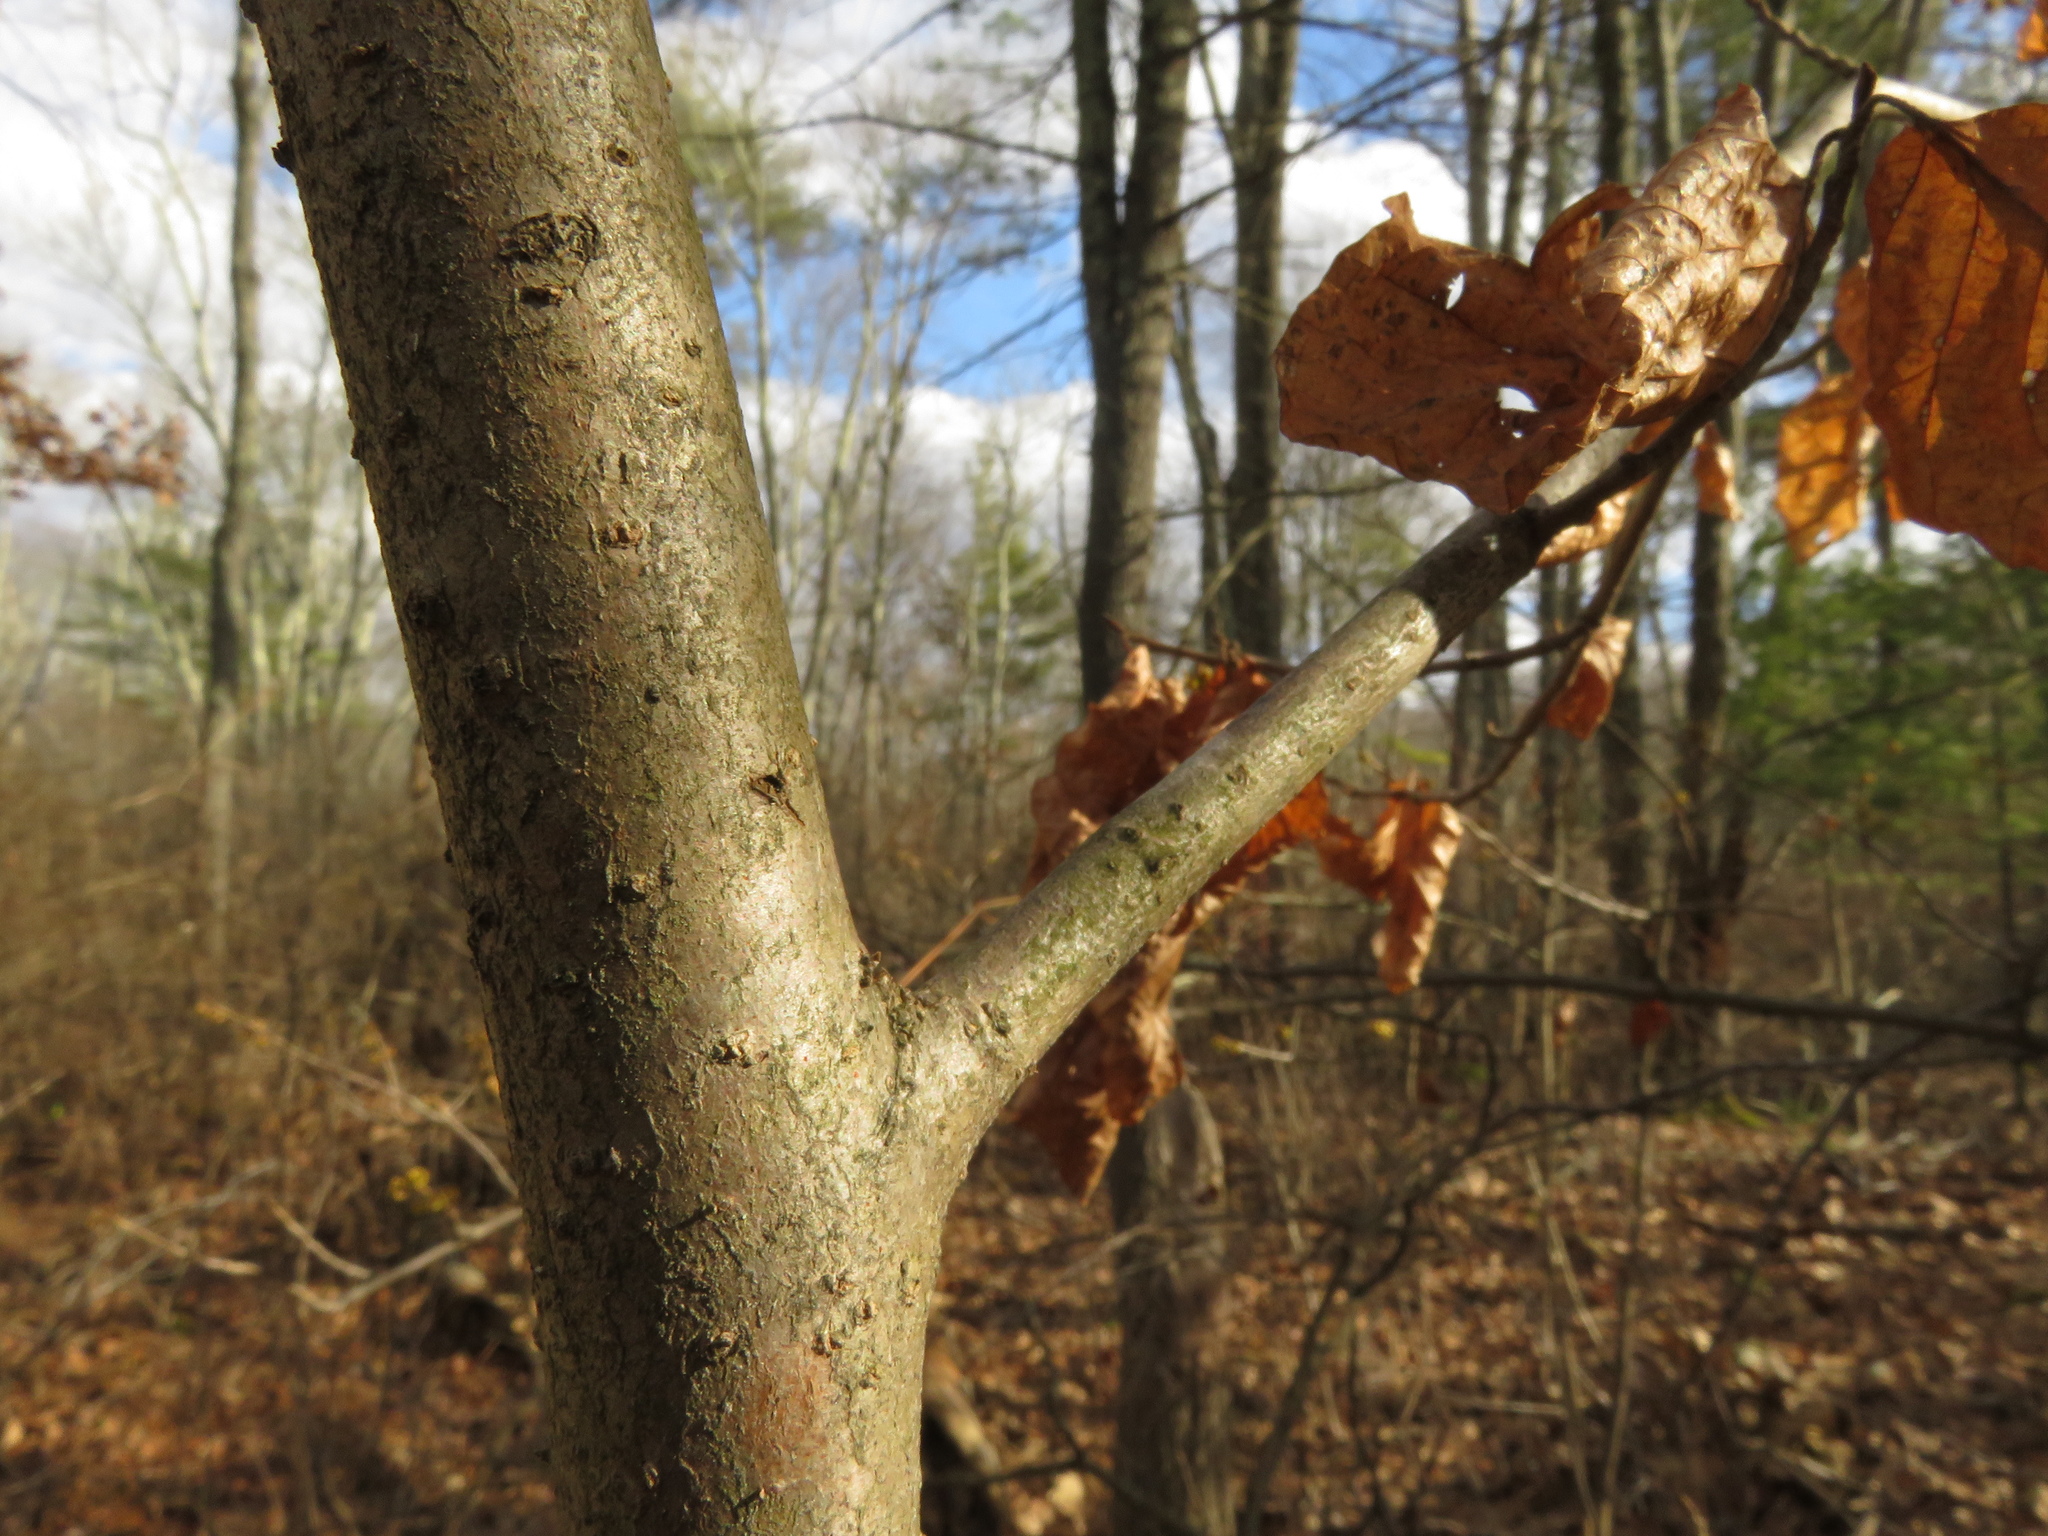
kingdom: Plantae
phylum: Tracheophyta
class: Magnoliopsida
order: Saxifragales
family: Hamamelidaceae
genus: Hamamelis
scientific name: Hamamelis virginiana
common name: Witch-hazel
